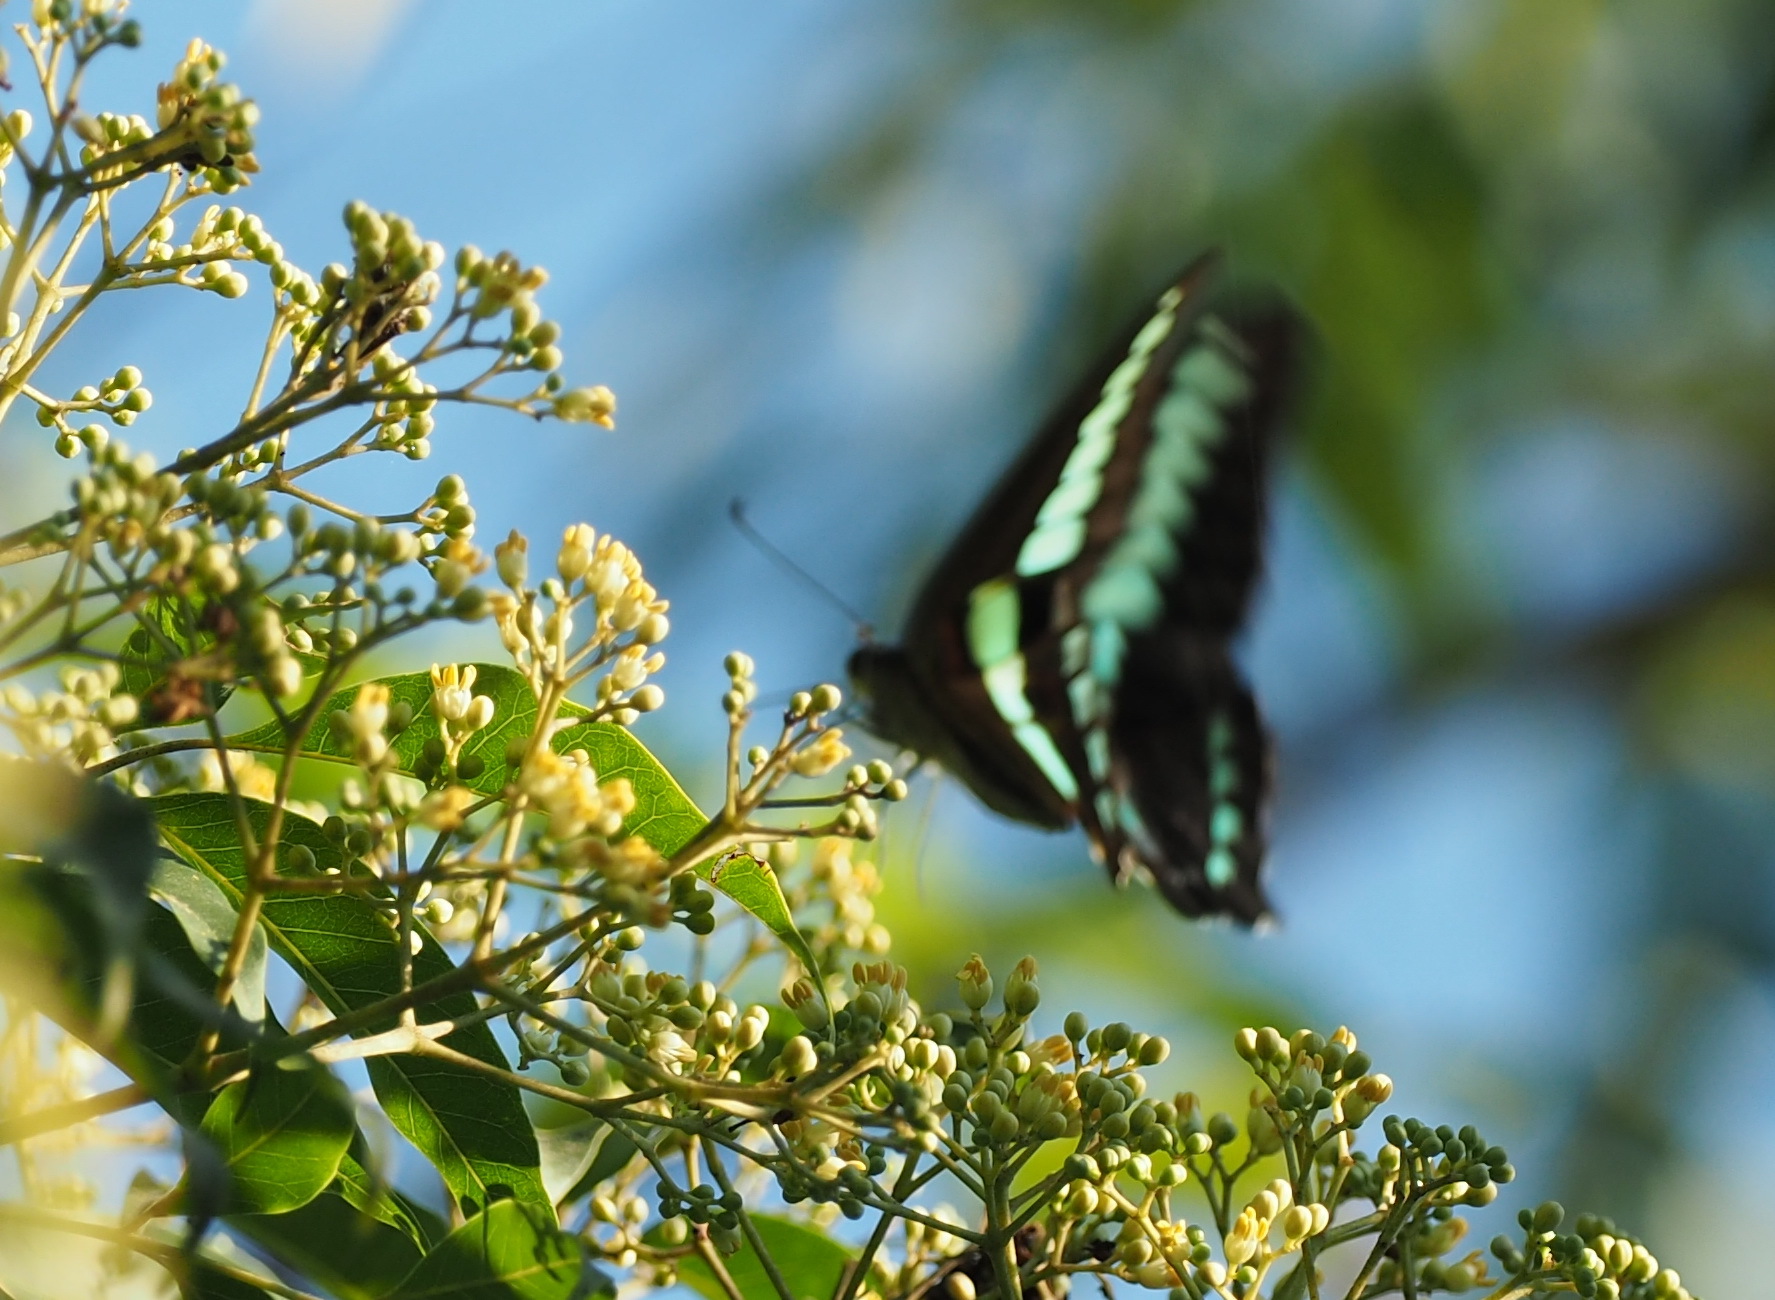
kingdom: Fungi
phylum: Ascomycota
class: Sordariomycetes
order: Microascales
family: Microascaceae
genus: Graphium
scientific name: Graphium sarpedon
